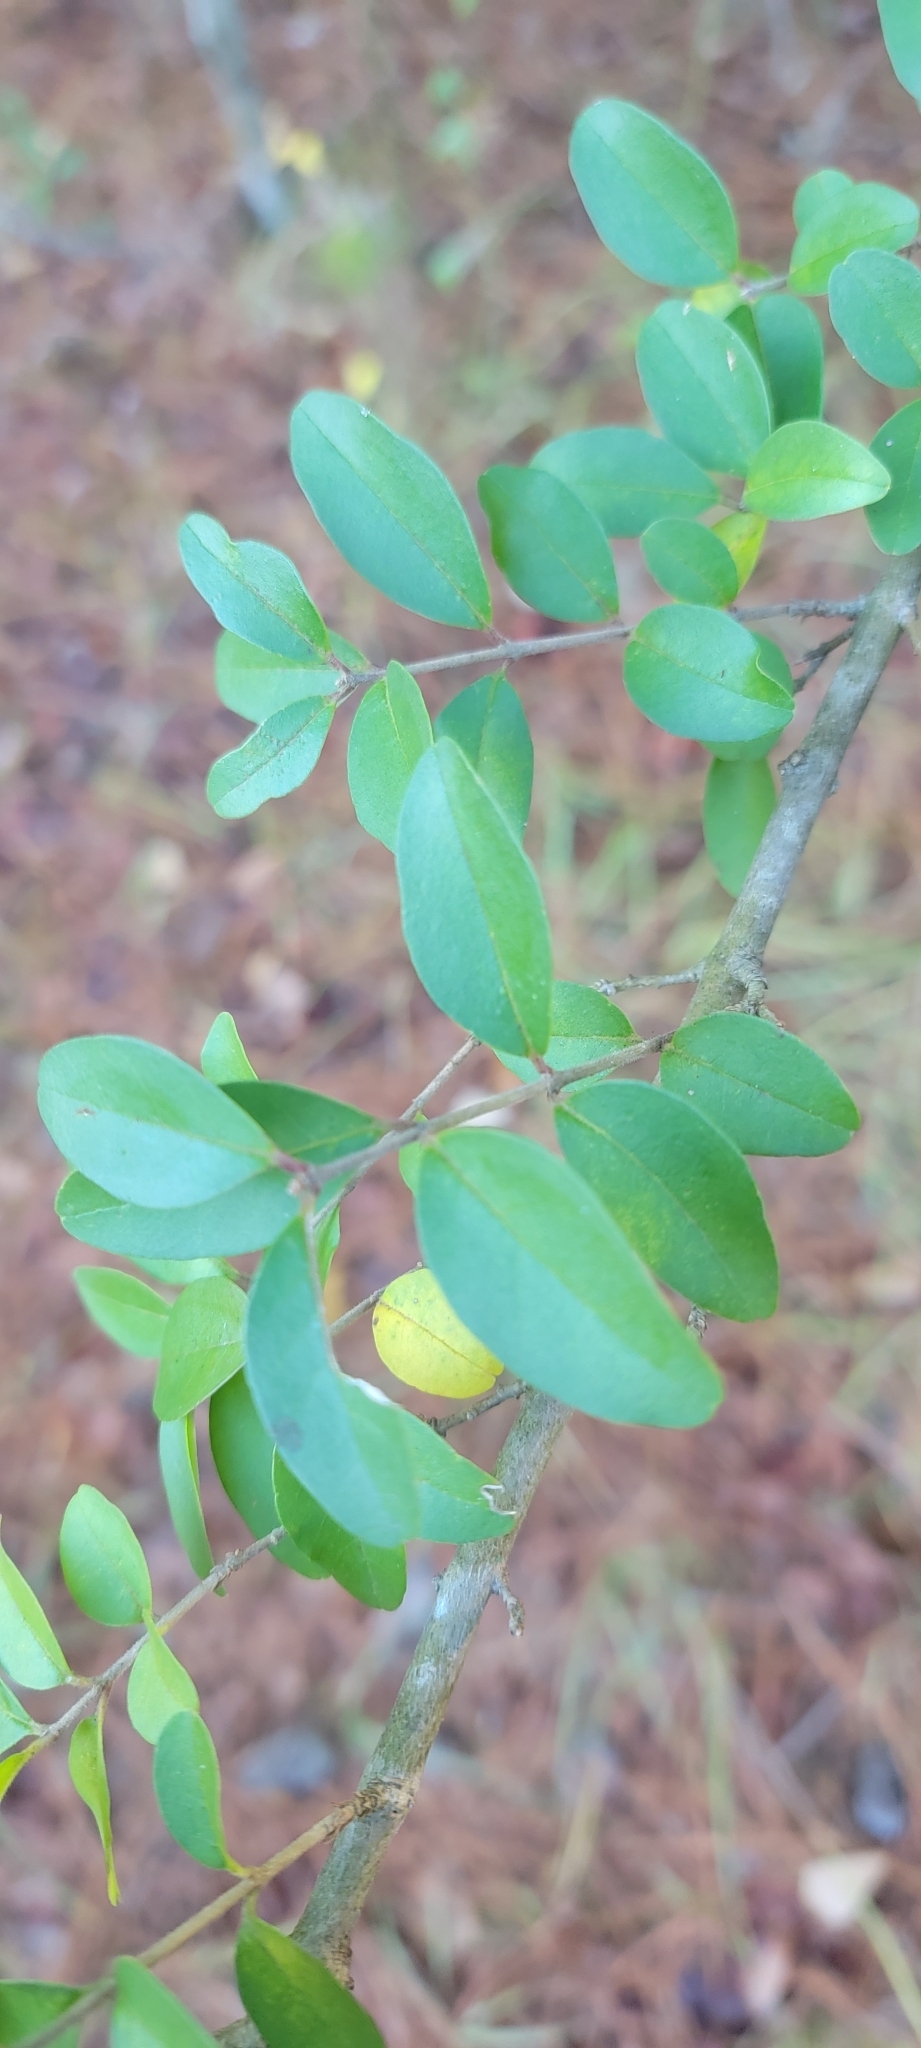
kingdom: Plantae
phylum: Tracheophyta
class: Magnoliopsida
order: Lamiales
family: Oleaceae
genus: Ligustrum
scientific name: Ligustrum sinense
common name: Chinese privet
